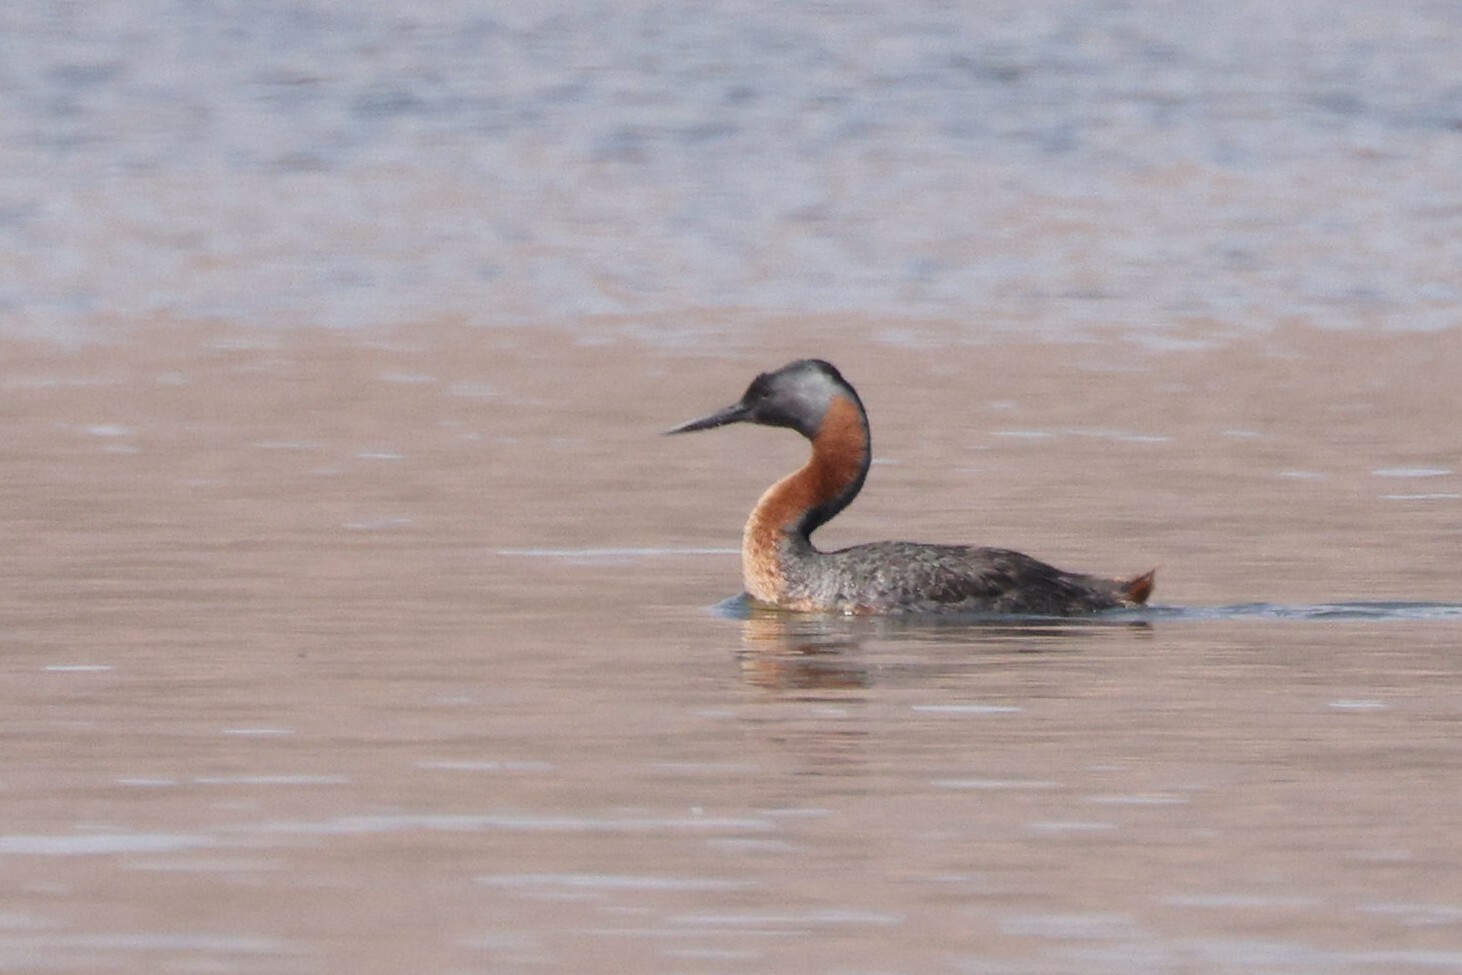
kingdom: Animalia
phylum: Chordata
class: Aves
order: Podicipediformes
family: Podicipedidae
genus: Podiceps
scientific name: Podiceps major
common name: Great grebe
